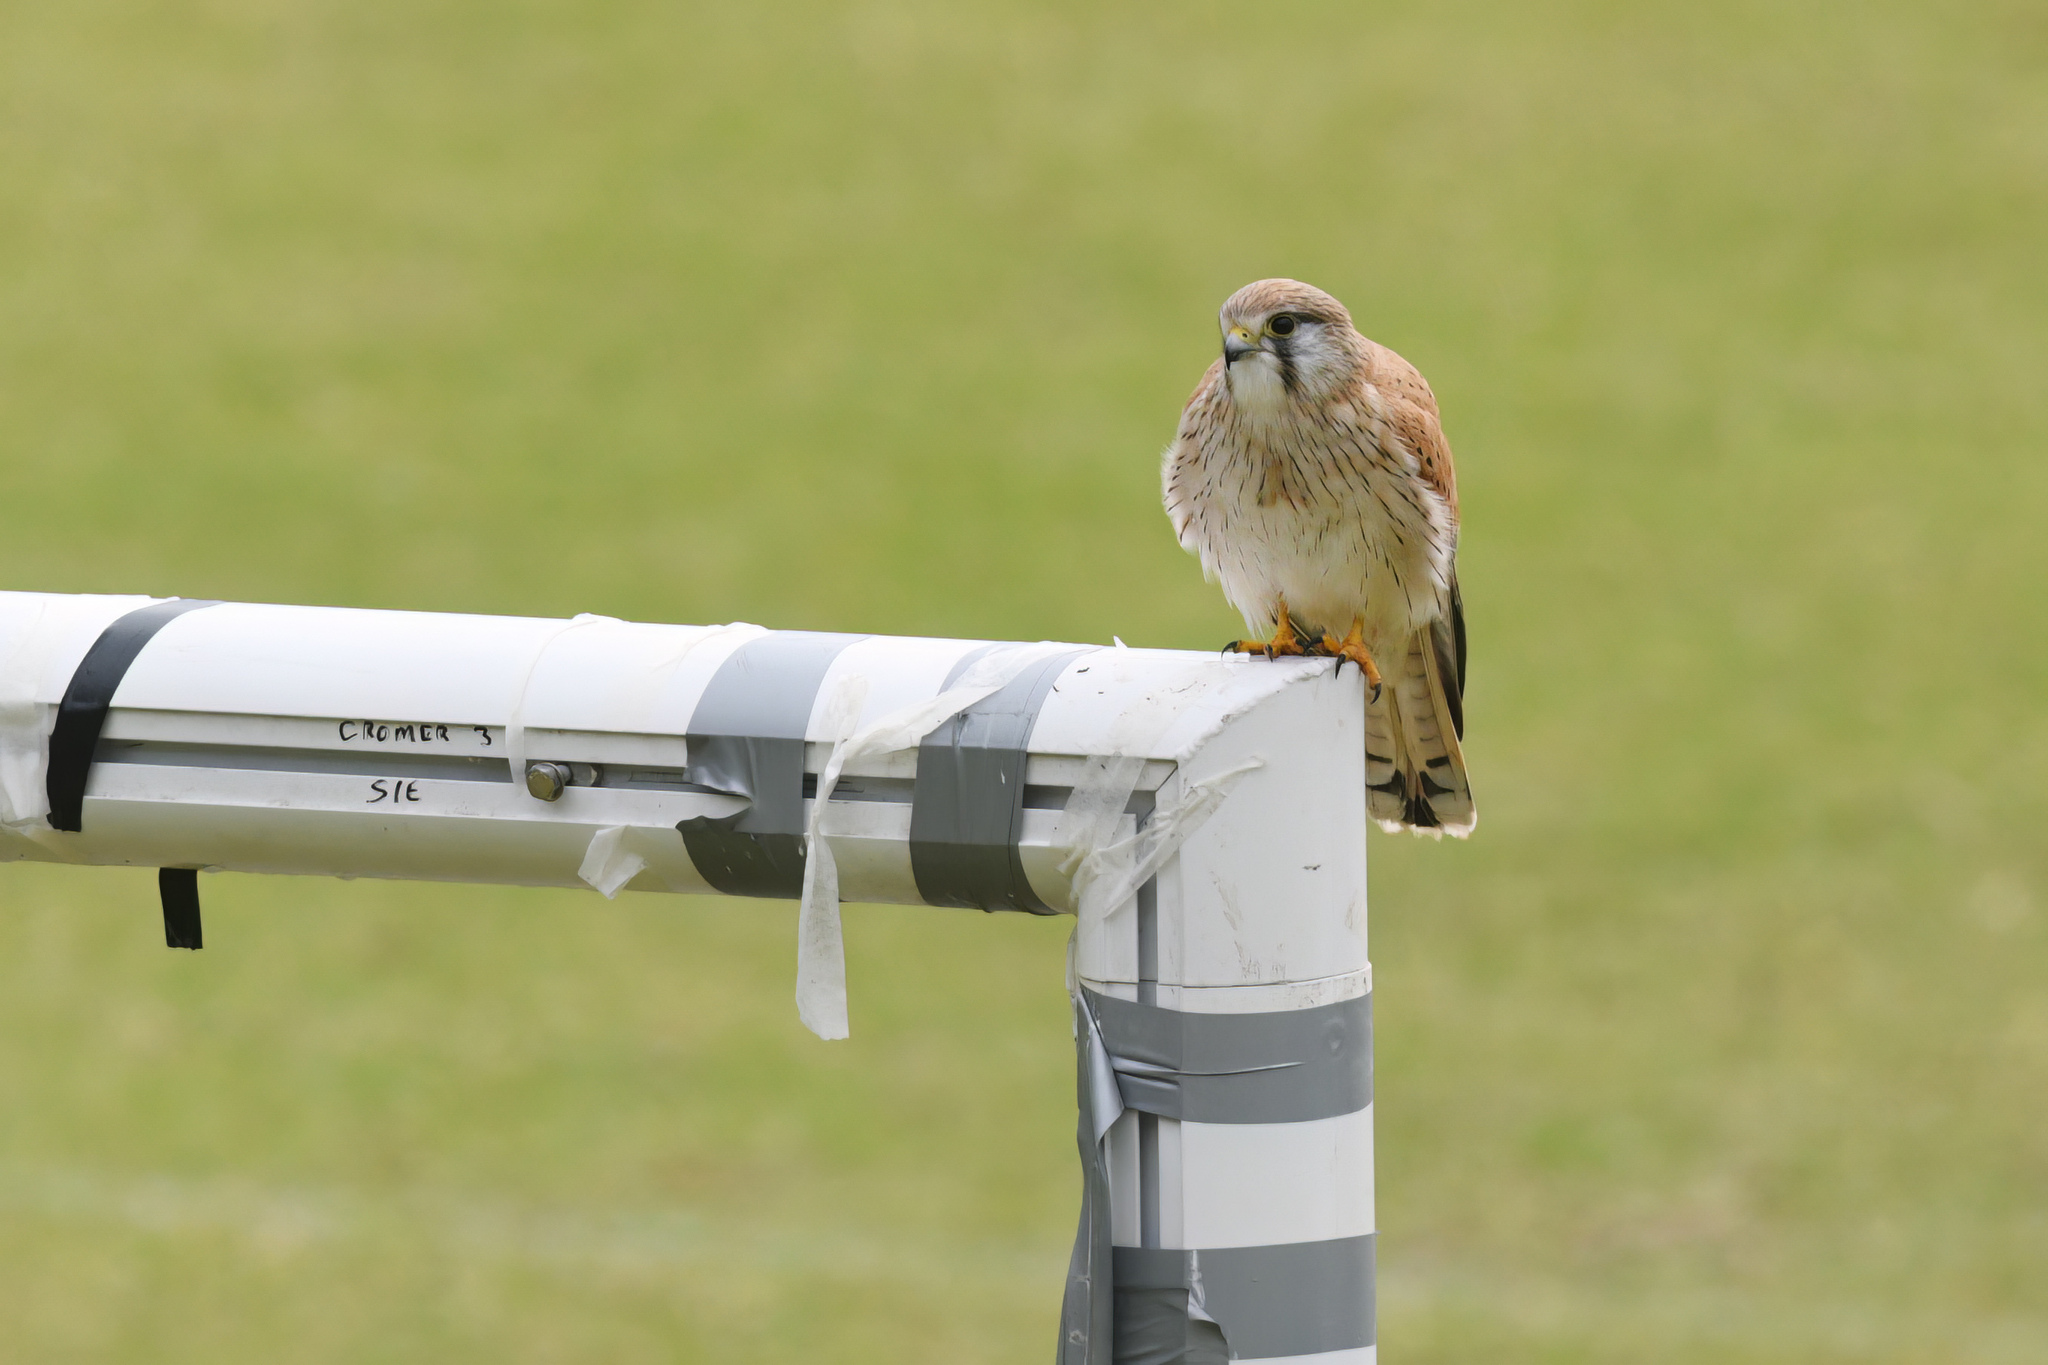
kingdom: Animalia
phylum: Chordata
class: Aves
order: Falconiformes
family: Falconidae
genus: Falco
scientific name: Falco cenchroides
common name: Nankeen kestrel
